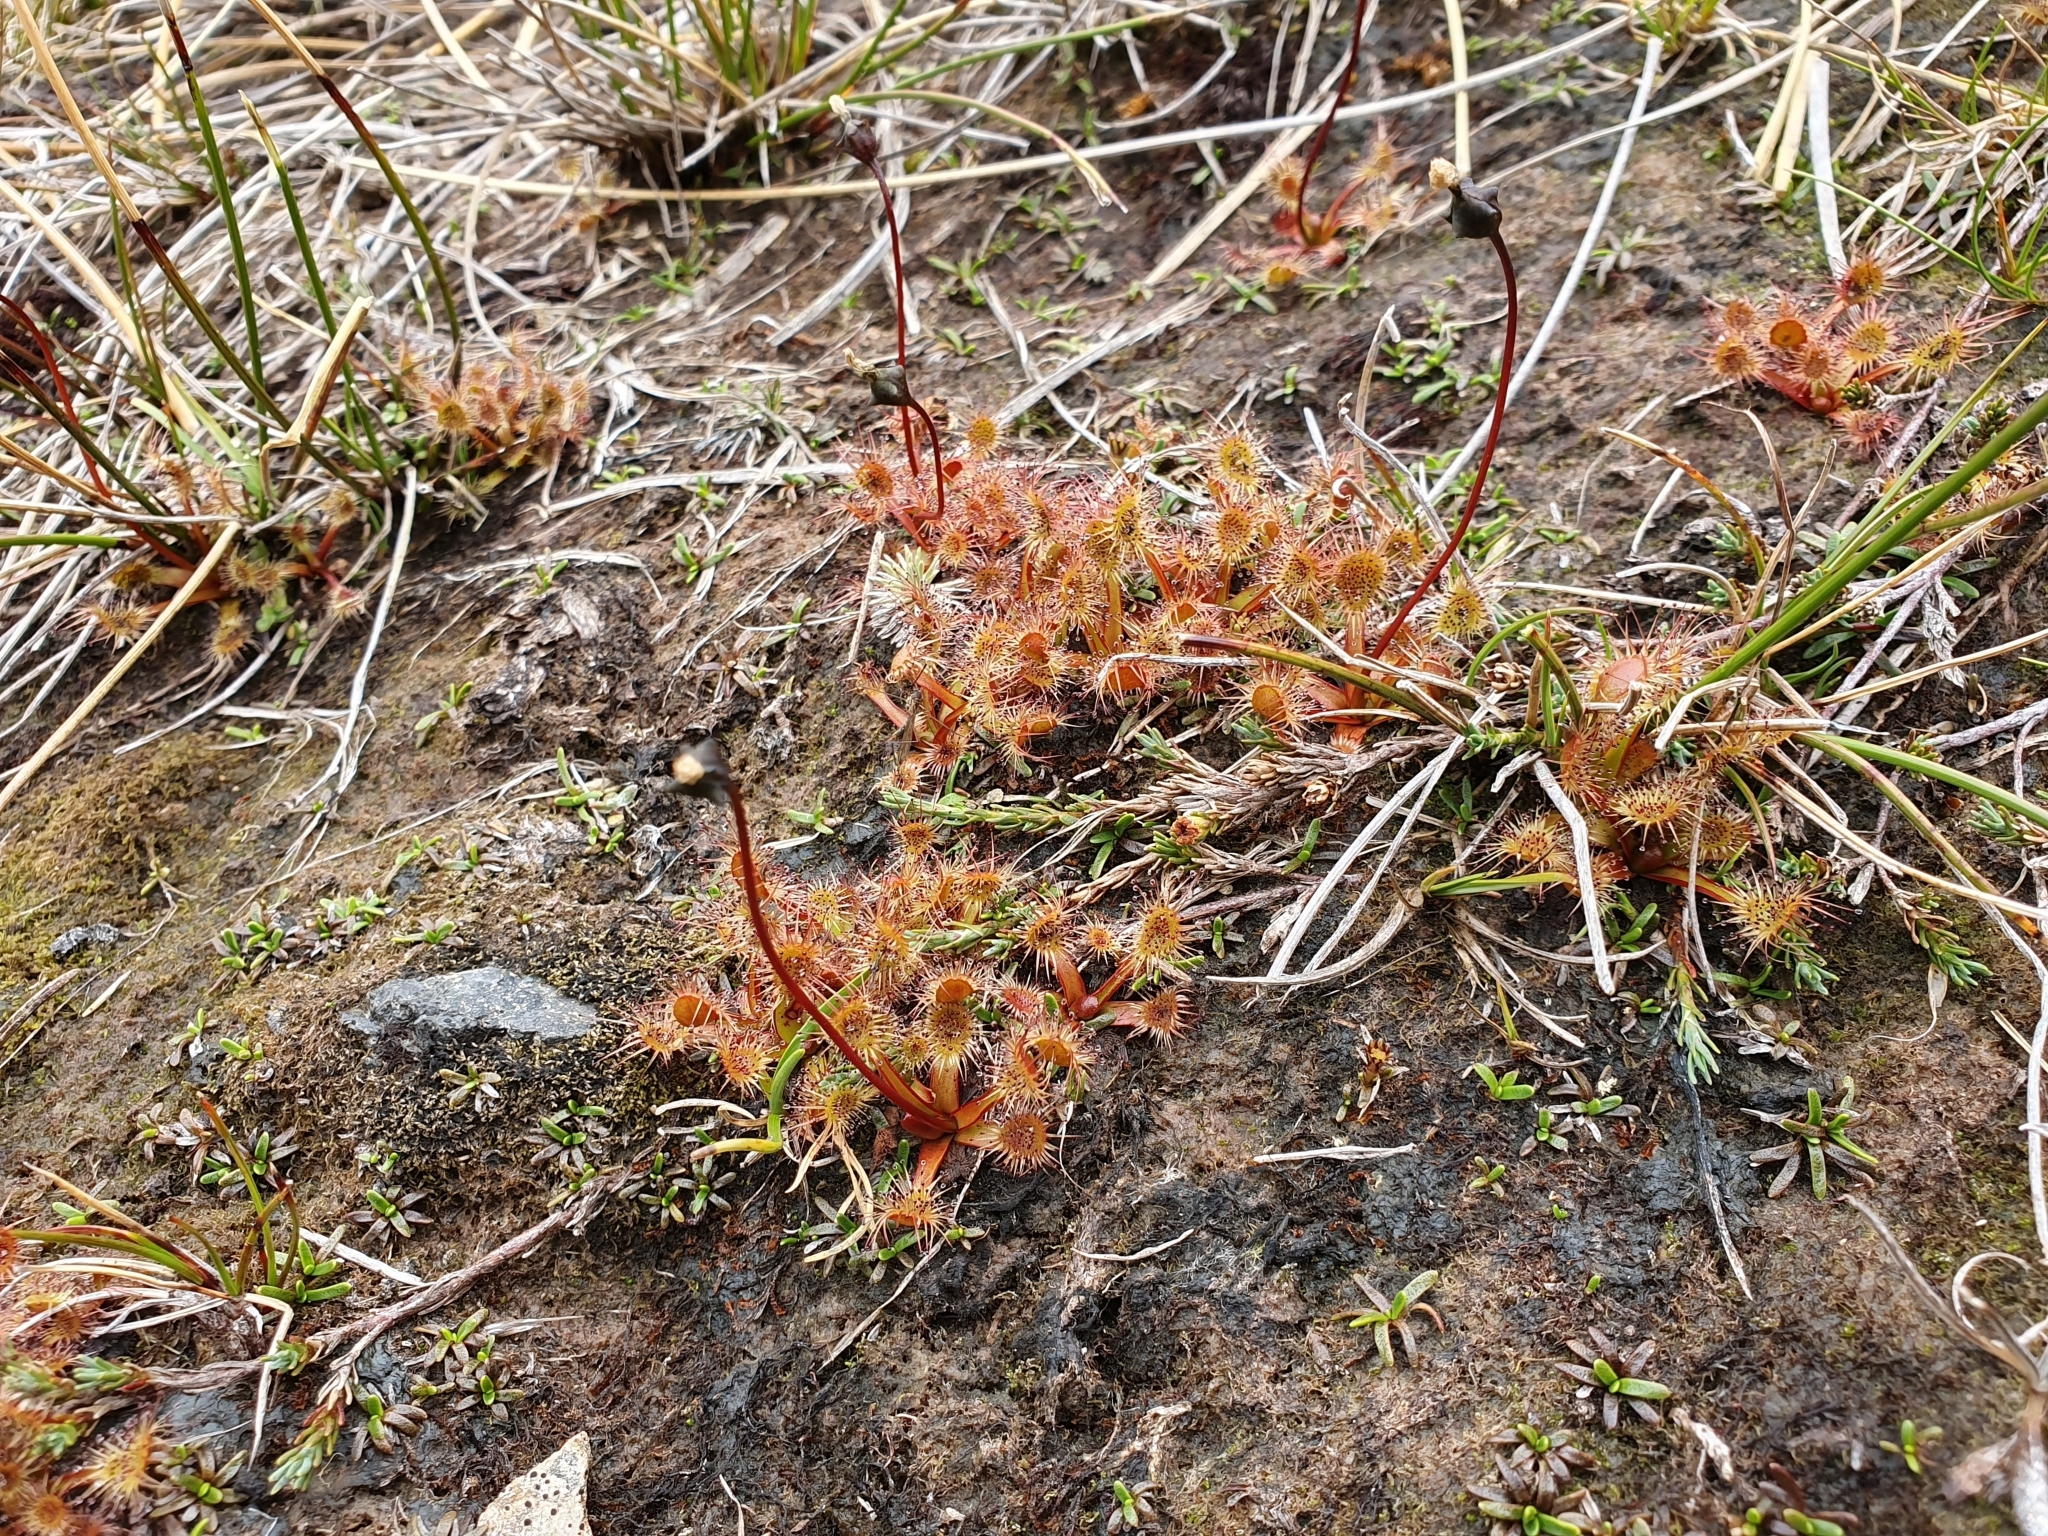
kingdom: Plantae
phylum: Tracheophyta
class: Magnoliopsida
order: Caryophyllales
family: Droseraceae
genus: Drosera
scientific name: Drosera stenopetala
